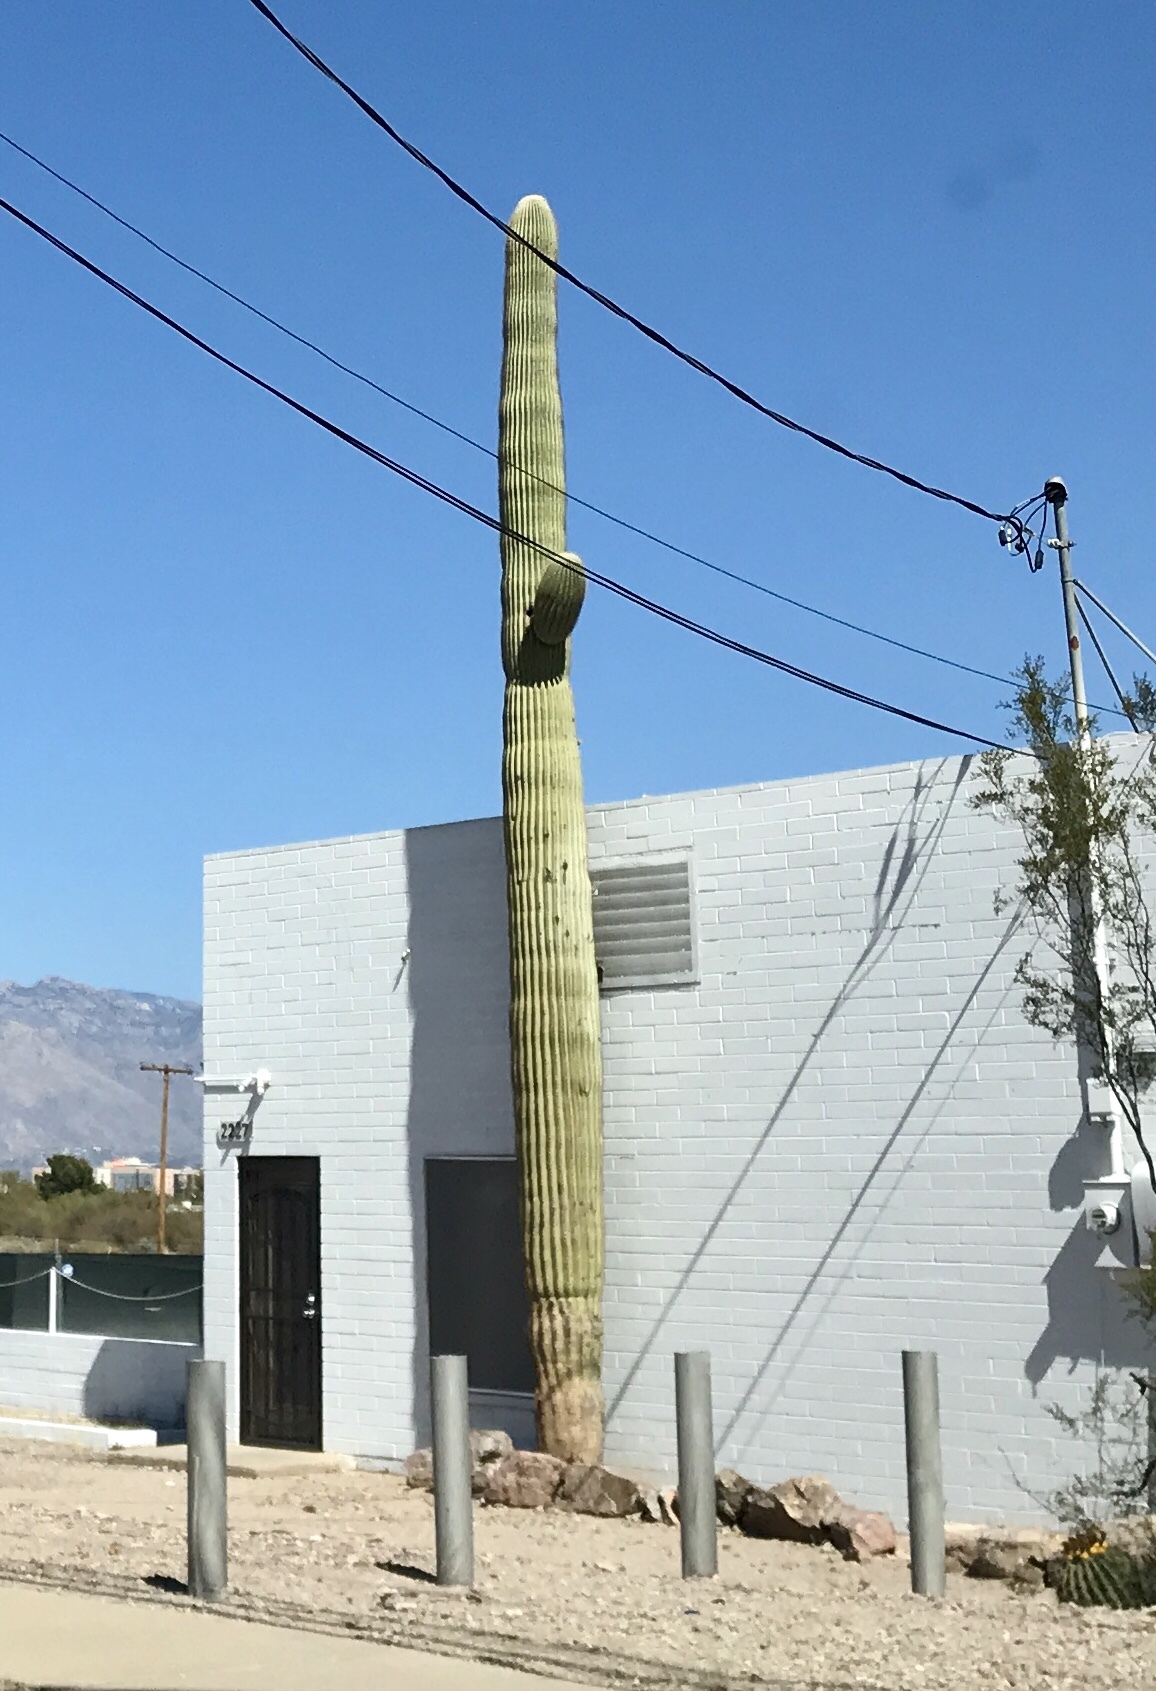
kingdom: Plantae
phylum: Tracheophyta
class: Magnoliopsida
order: Caryophyllales
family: Cactaceae
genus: Carnegiea
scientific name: Carnegiea gigantea
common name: Saguaro
